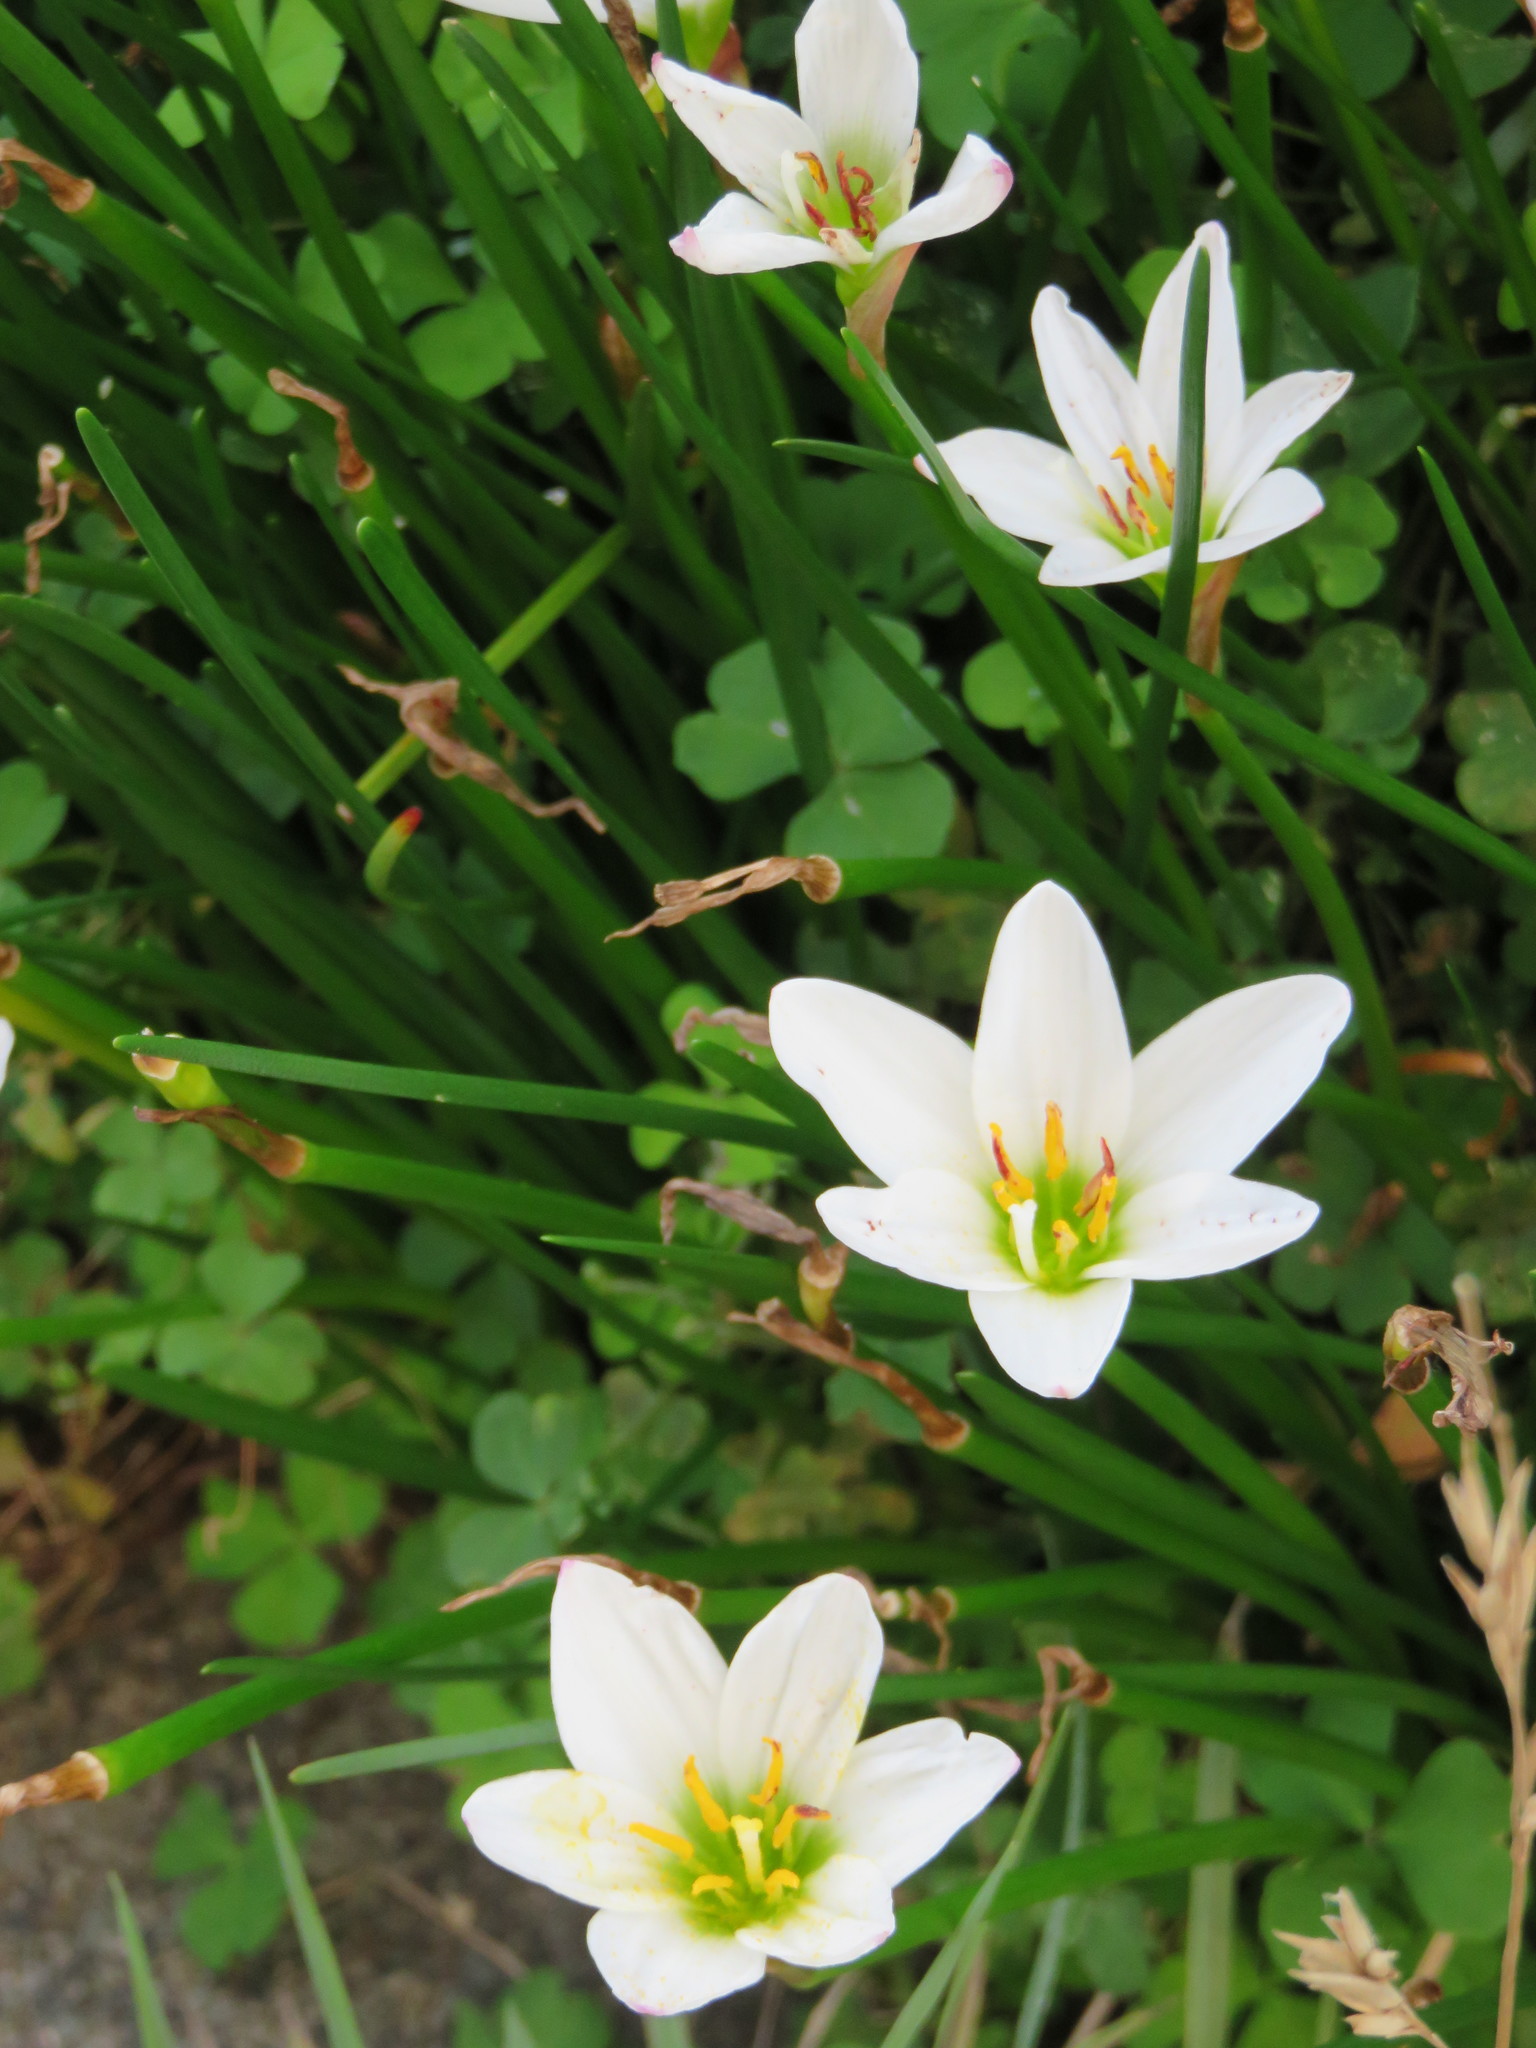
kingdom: Plantae
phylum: Tracheophyta
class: Liliopsida
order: Asparagales
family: Amaryllidaceae
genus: Zephyranthes
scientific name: Zephyranthes candida
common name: Autumn zephyrlily
